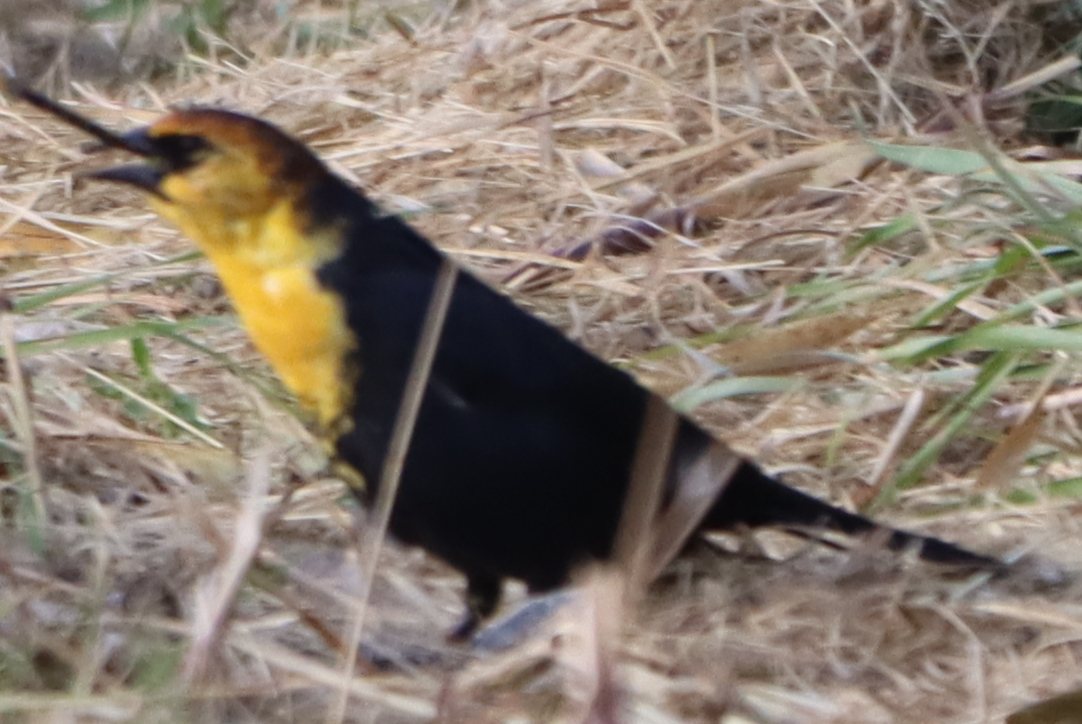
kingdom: Animalia
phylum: Chordata
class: Aves
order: Passeriformes
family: Icteridae
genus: Xanthocephalus
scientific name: Xanthocephalus xanthocephalus
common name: Yellow-headed blackbird
